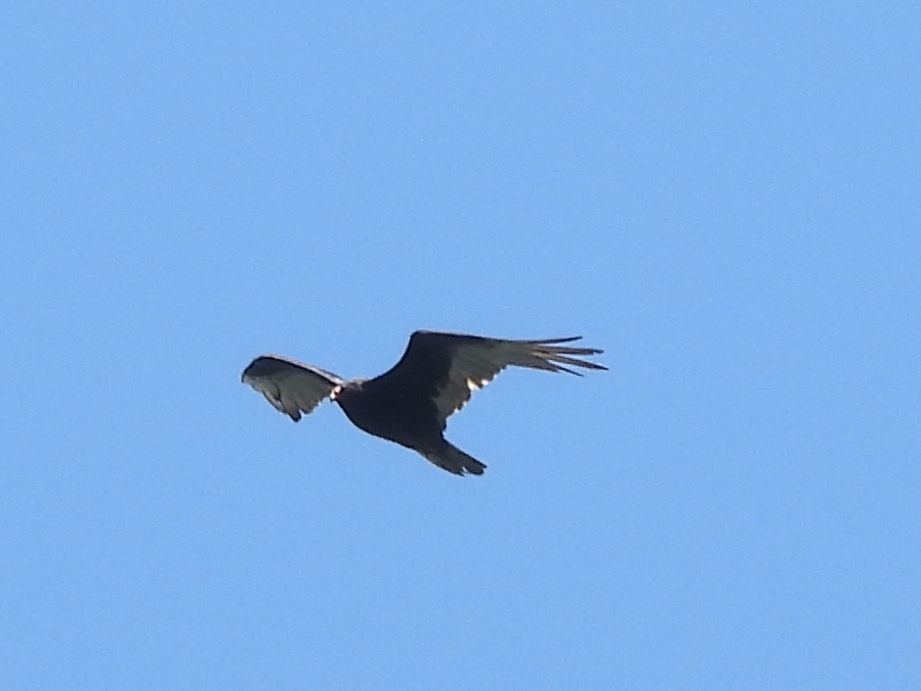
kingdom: Animalia
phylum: Chordata
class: Aves
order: Accipitriformes
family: Cathartidae
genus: Cathartes
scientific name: Cathartes aura
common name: Turkey vulture
